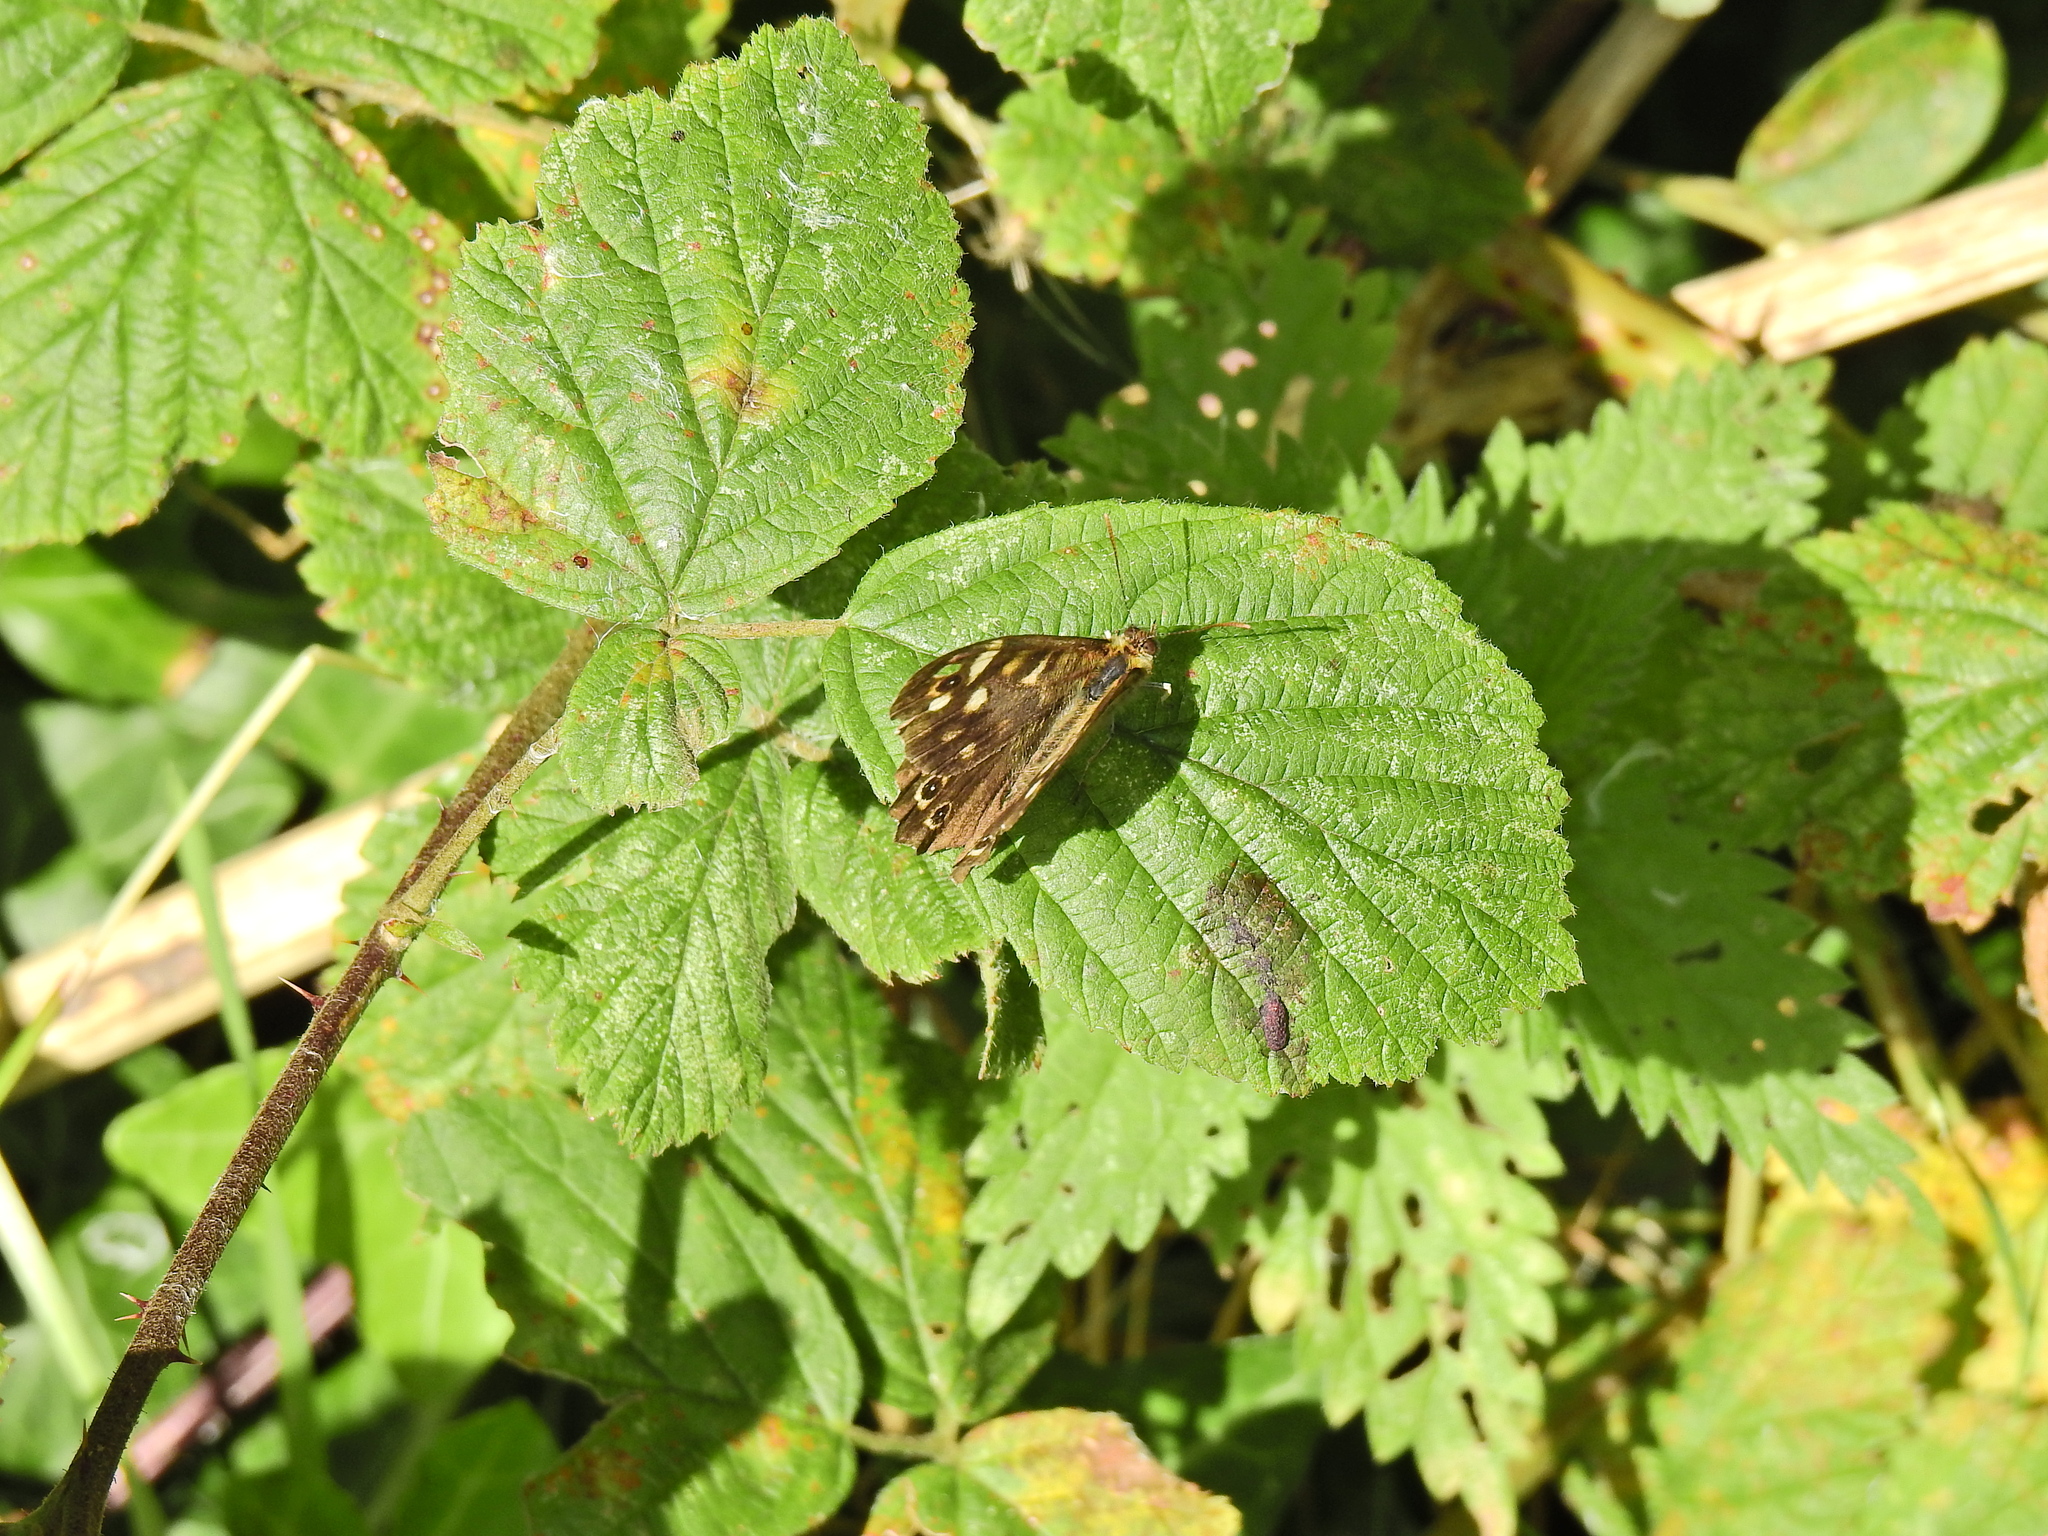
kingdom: Animalia
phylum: Arthropoda
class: Insecta
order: Lepidoptera
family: Nymphalidae
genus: Pararge
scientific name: Pararge aegeria
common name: Speckled wood
